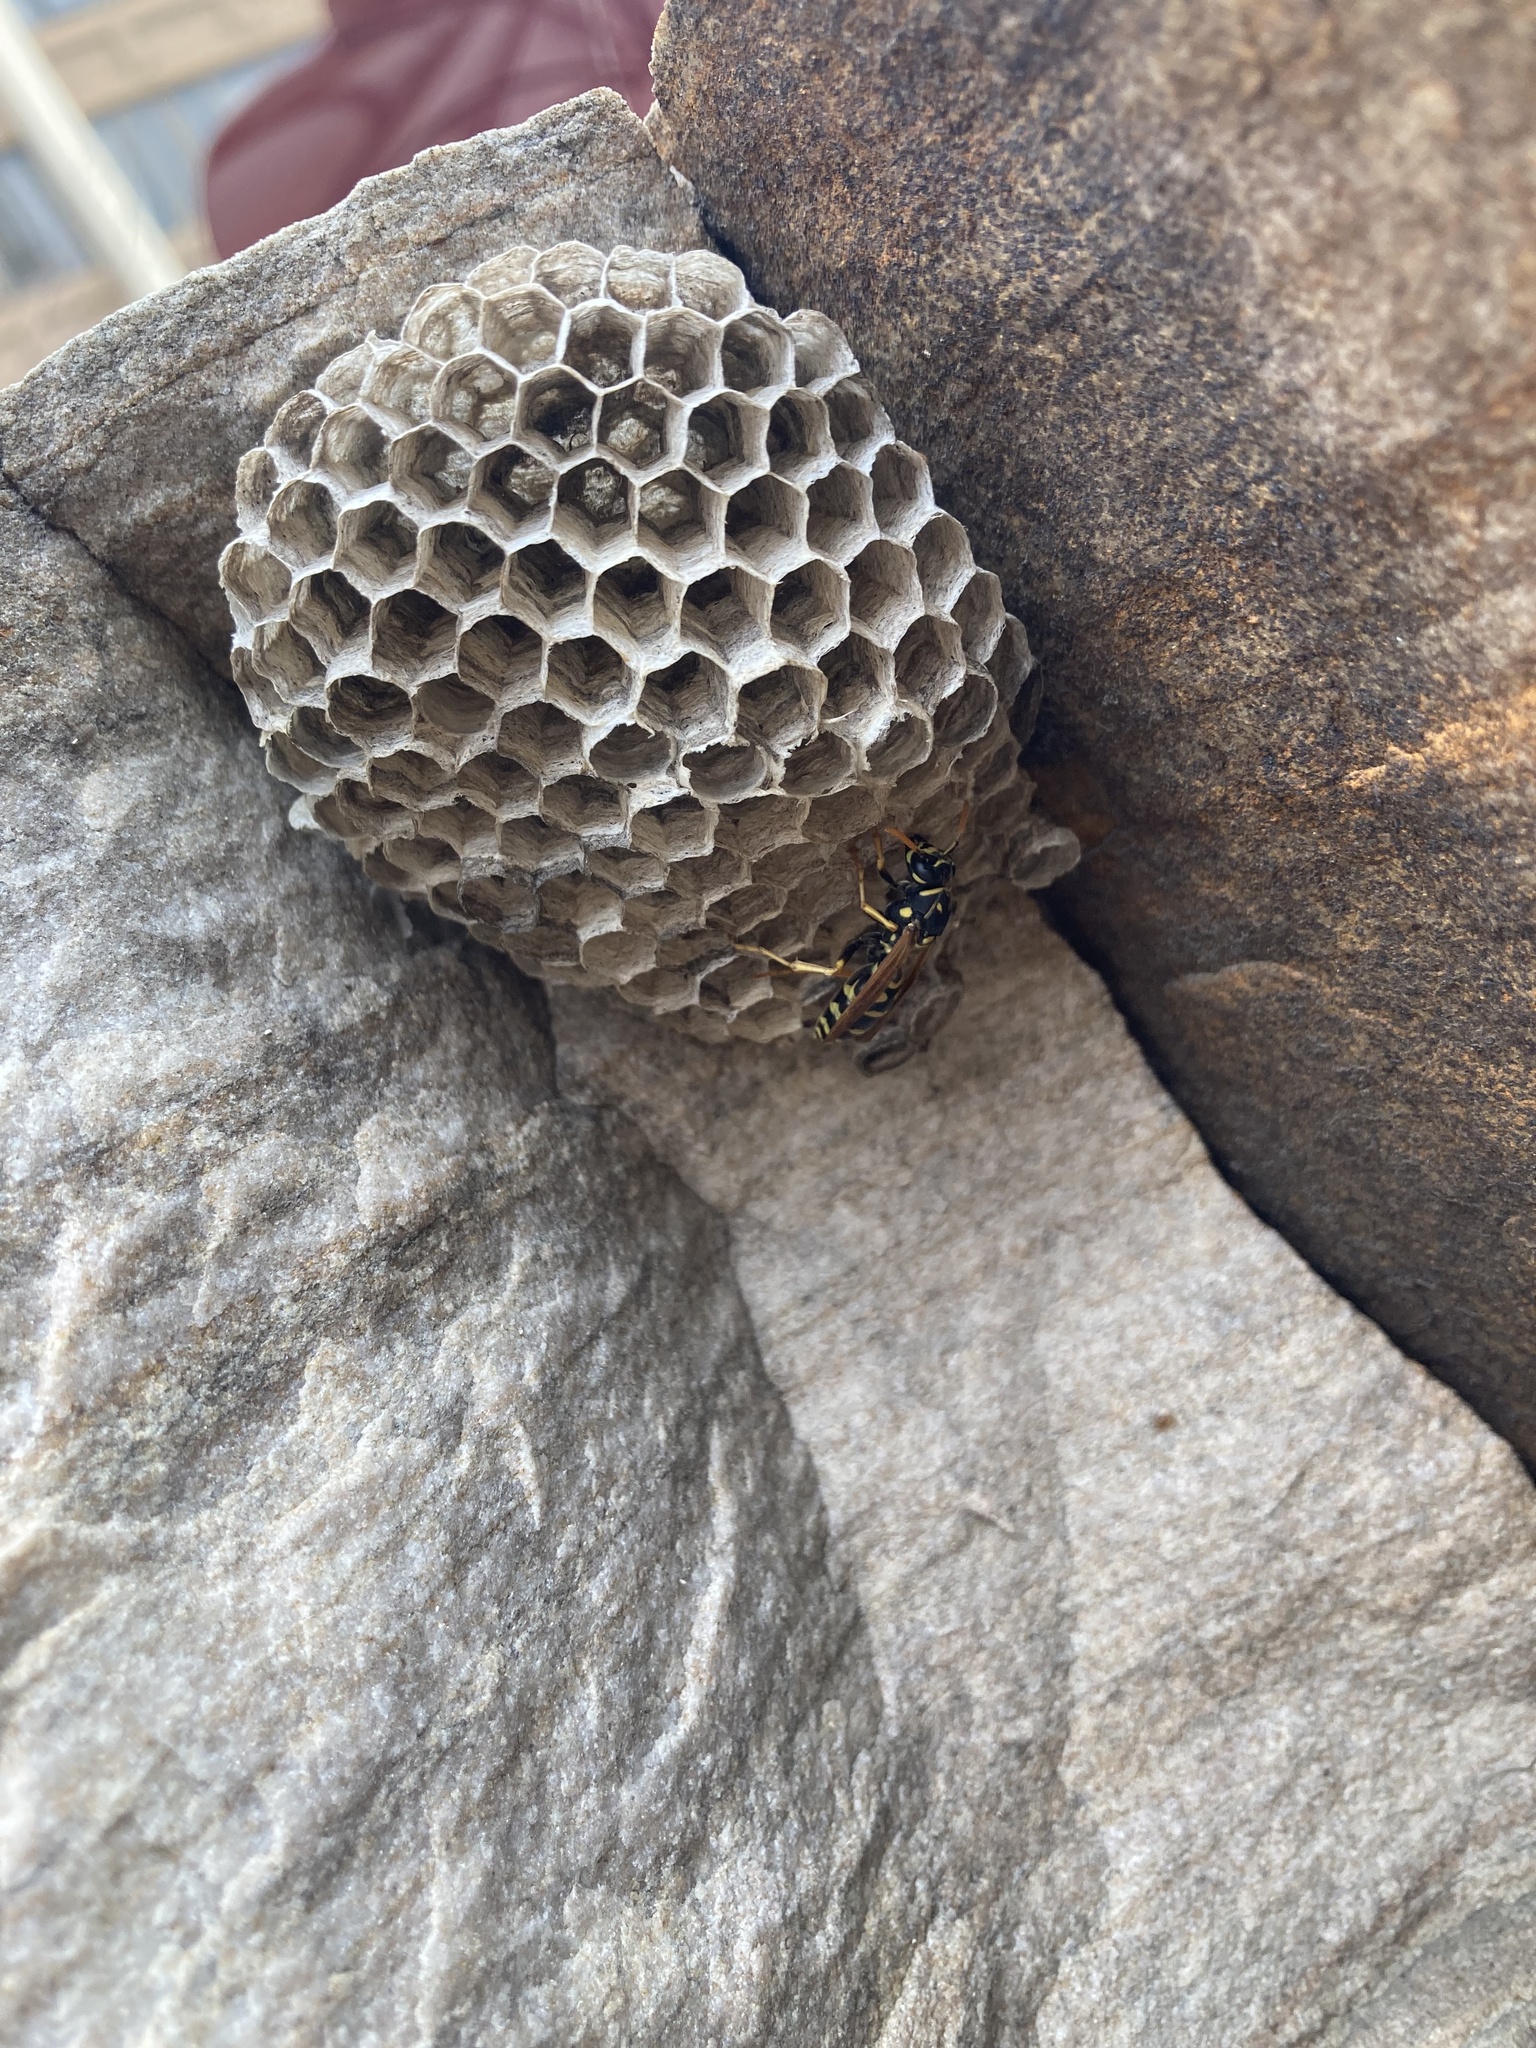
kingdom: Animalia
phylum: Arthropoda
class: Insecta
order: Hymenoptera
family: Eumenidae
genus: Polistes
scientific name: Polistes dominula
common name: Paper wasp
